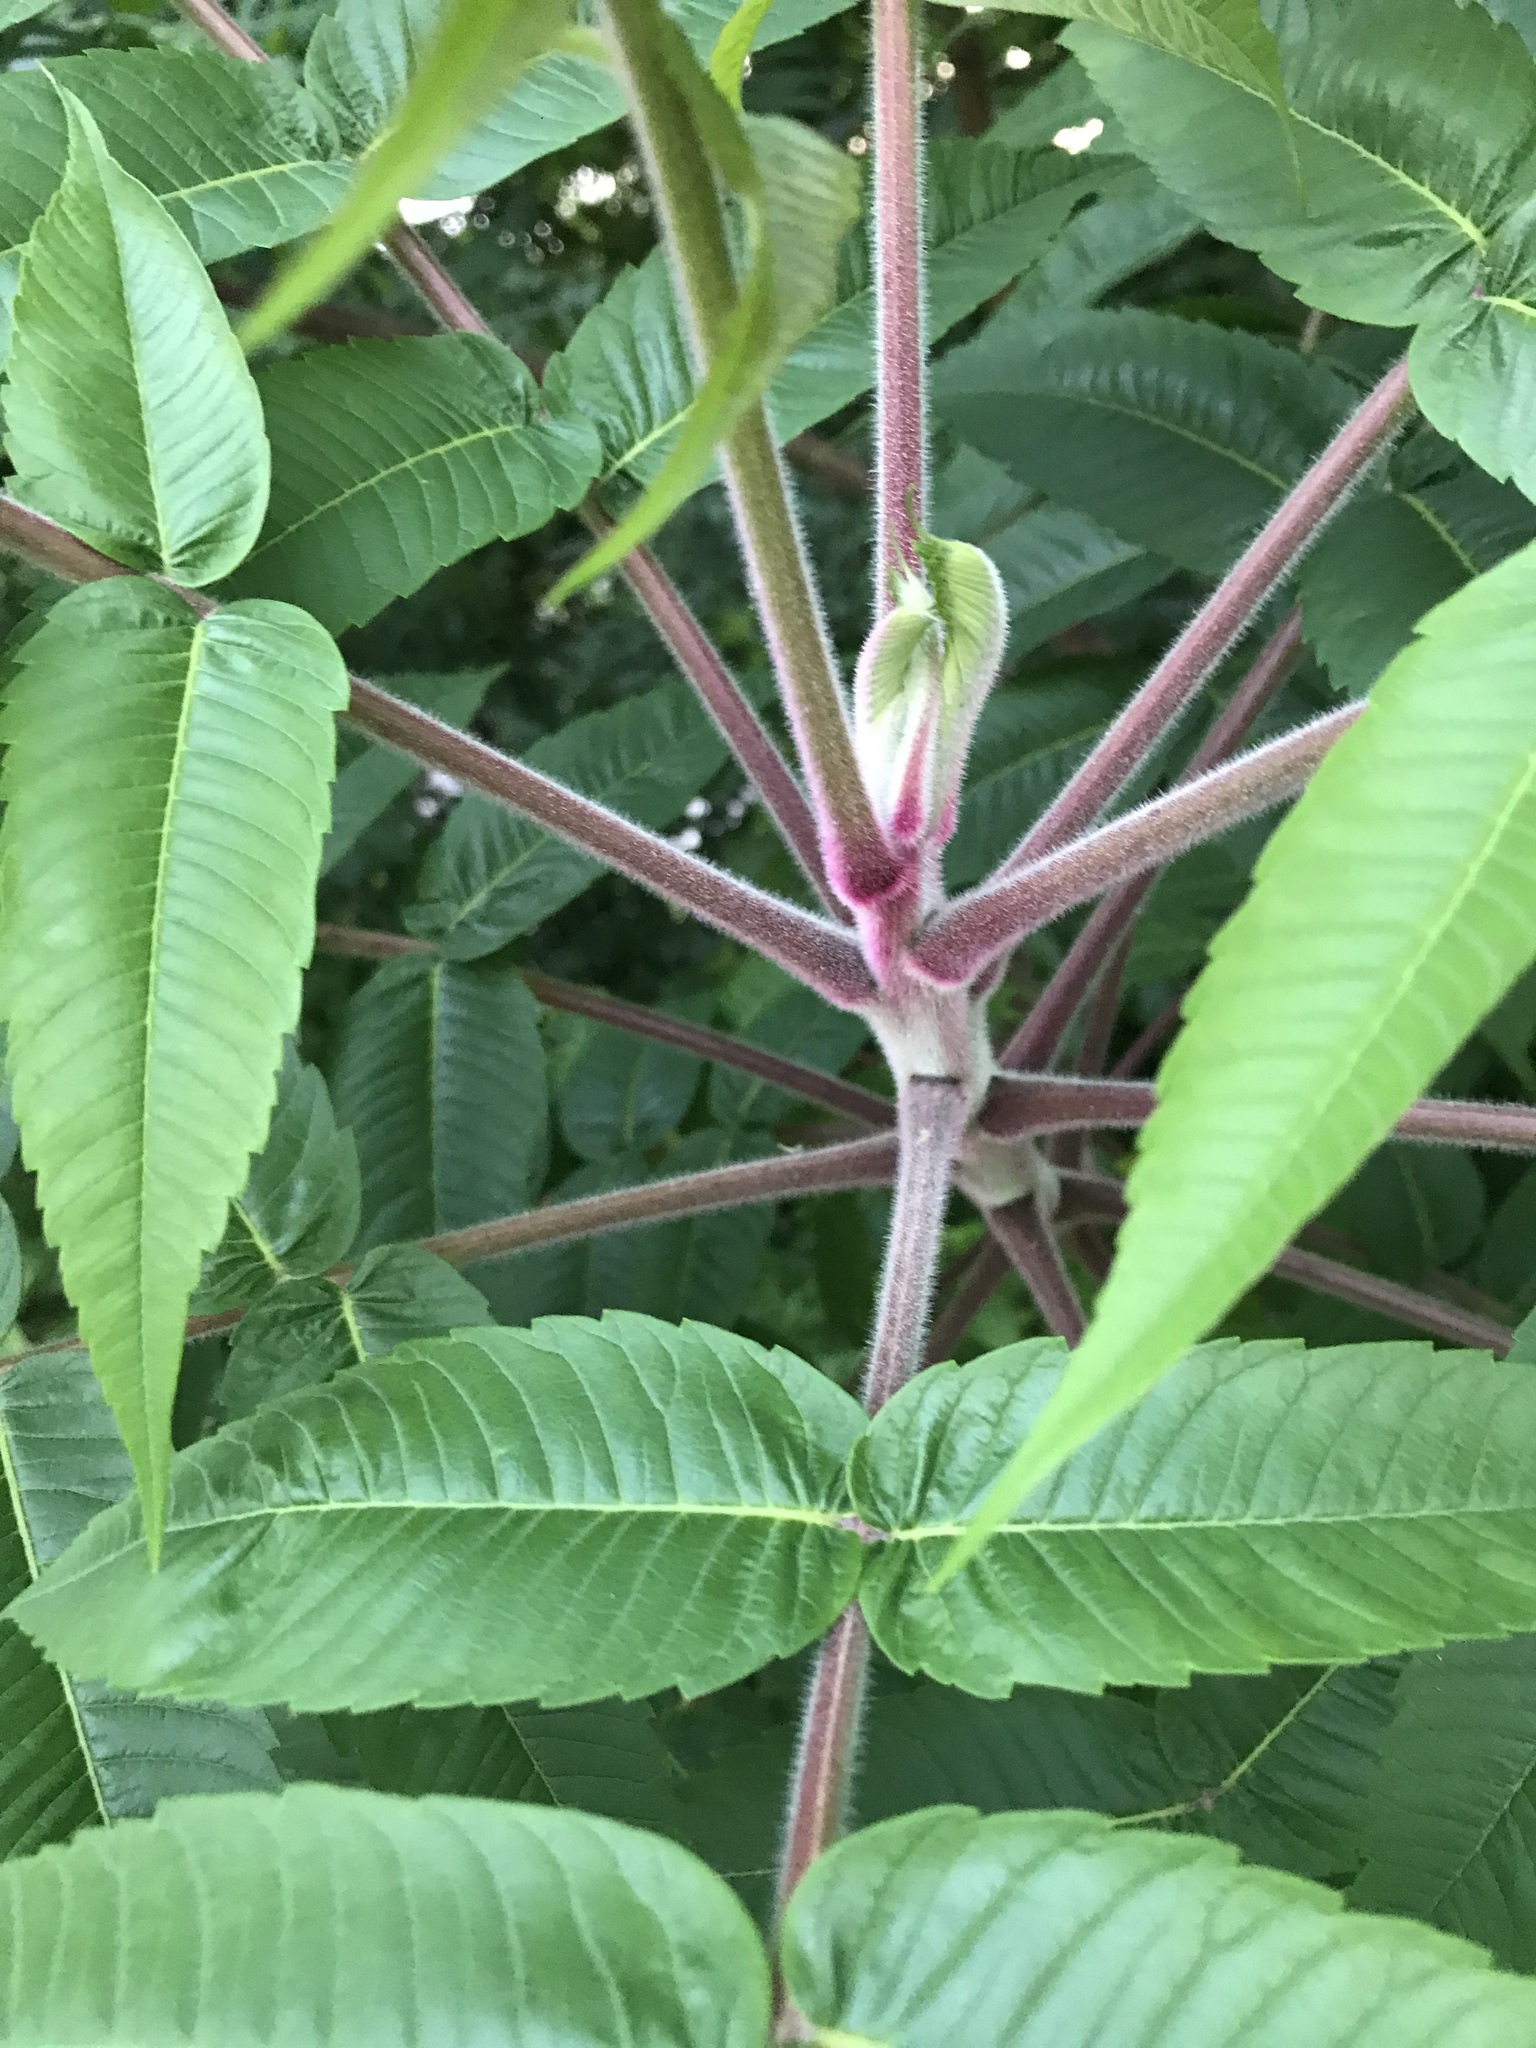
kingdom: Plantae
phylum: Tracheophyta
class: Magnoliopsida
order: Sapindales
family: Anacardiaceae
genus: Rhus
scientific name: Rhus typhina
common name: Staghorn sumac
